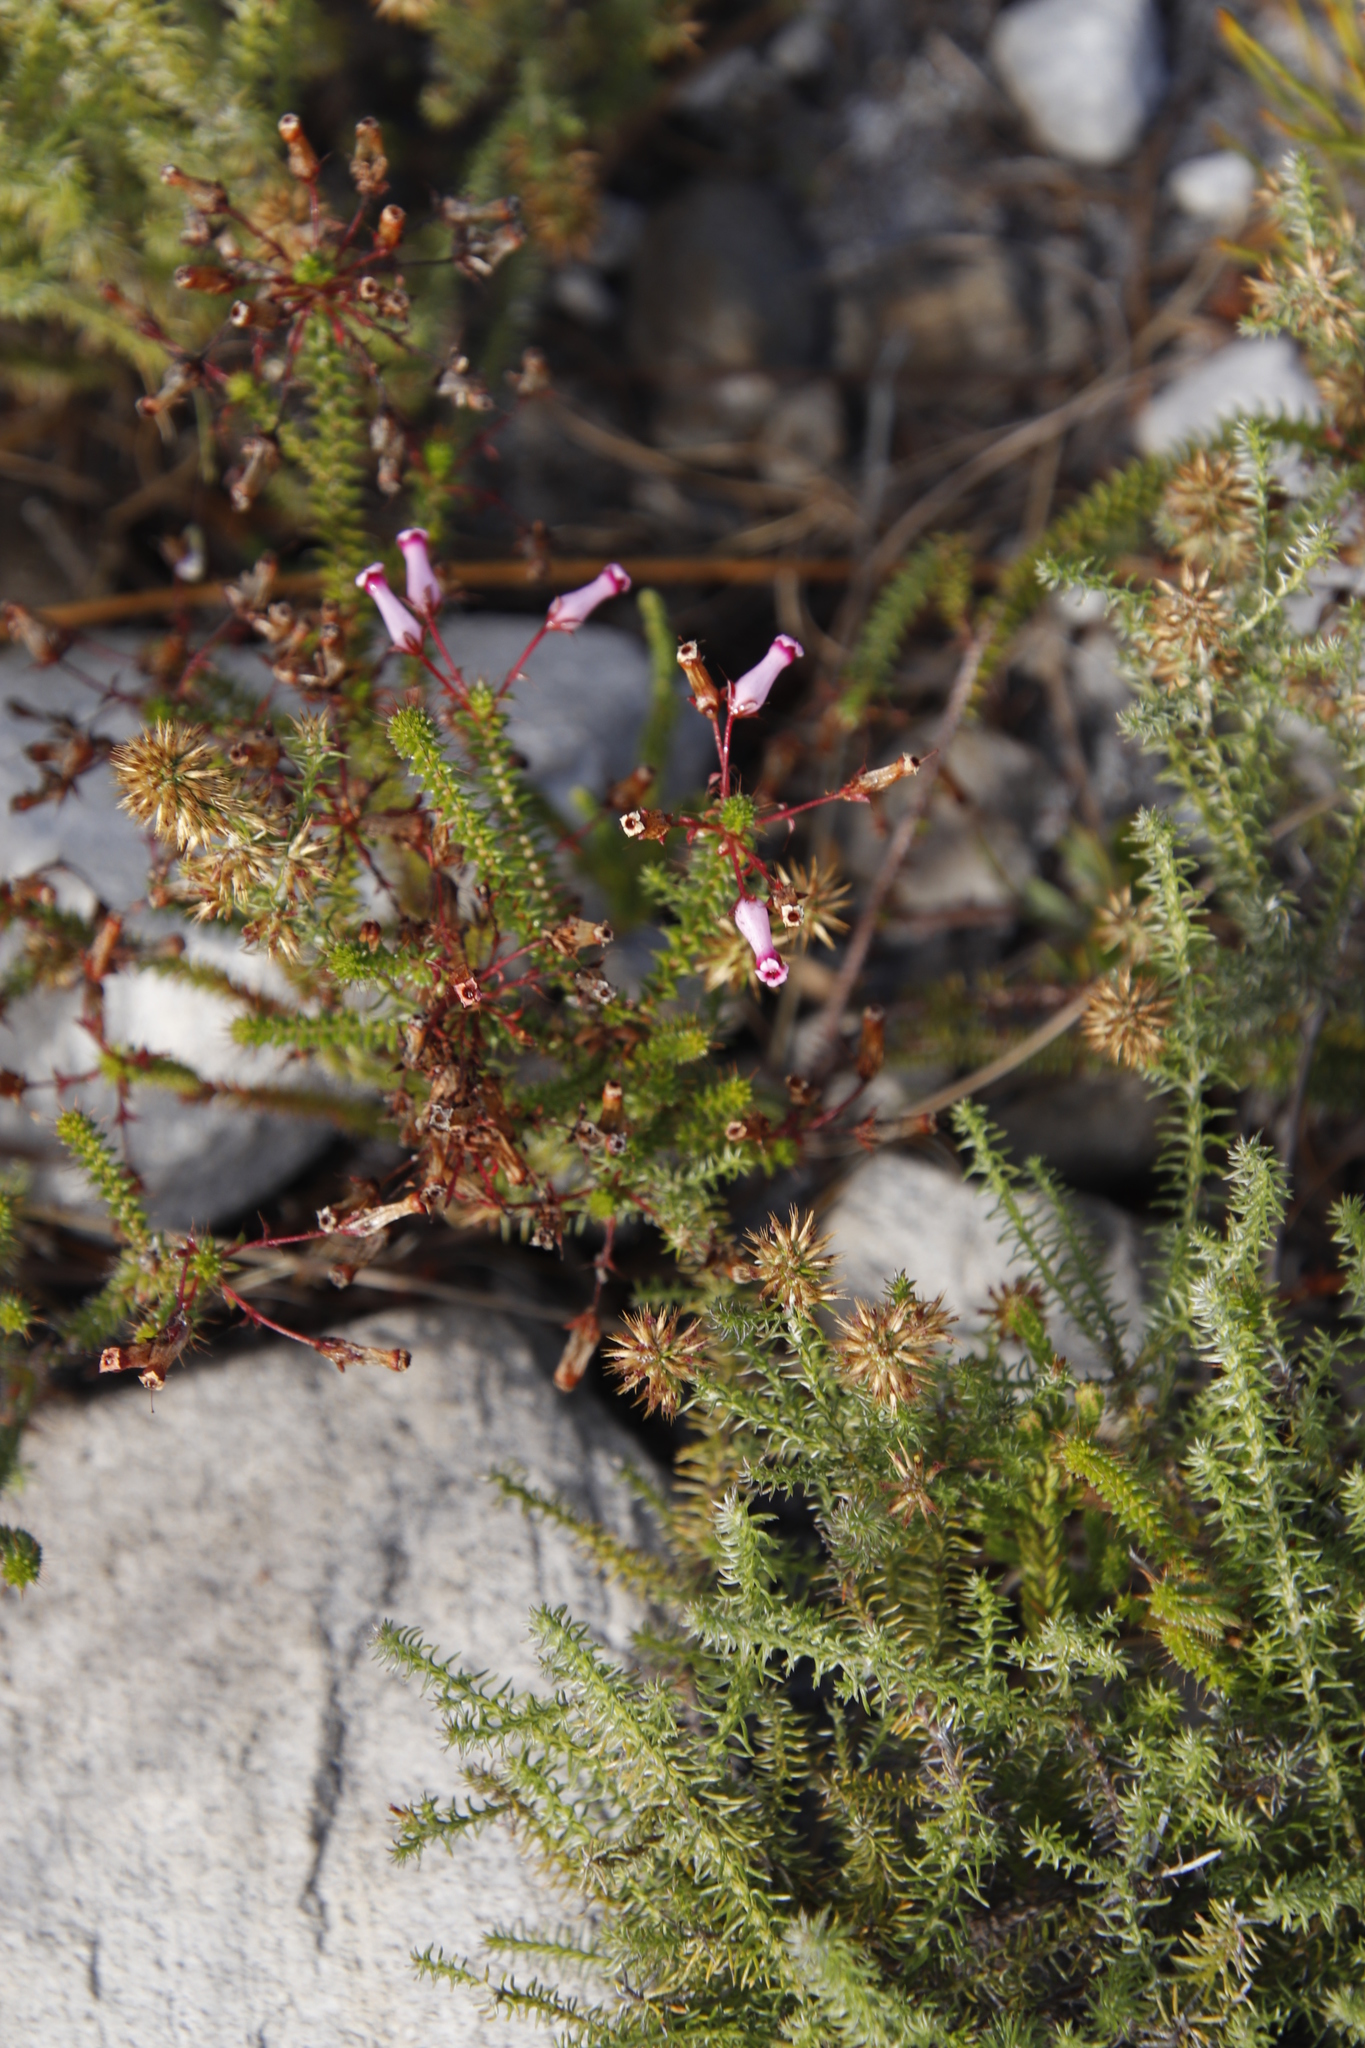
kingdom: Plantae
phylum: Tracheophyta
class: Magnoliopsida
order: Ericales
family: Ericaceae
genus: Erica
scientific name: Erica retorta
